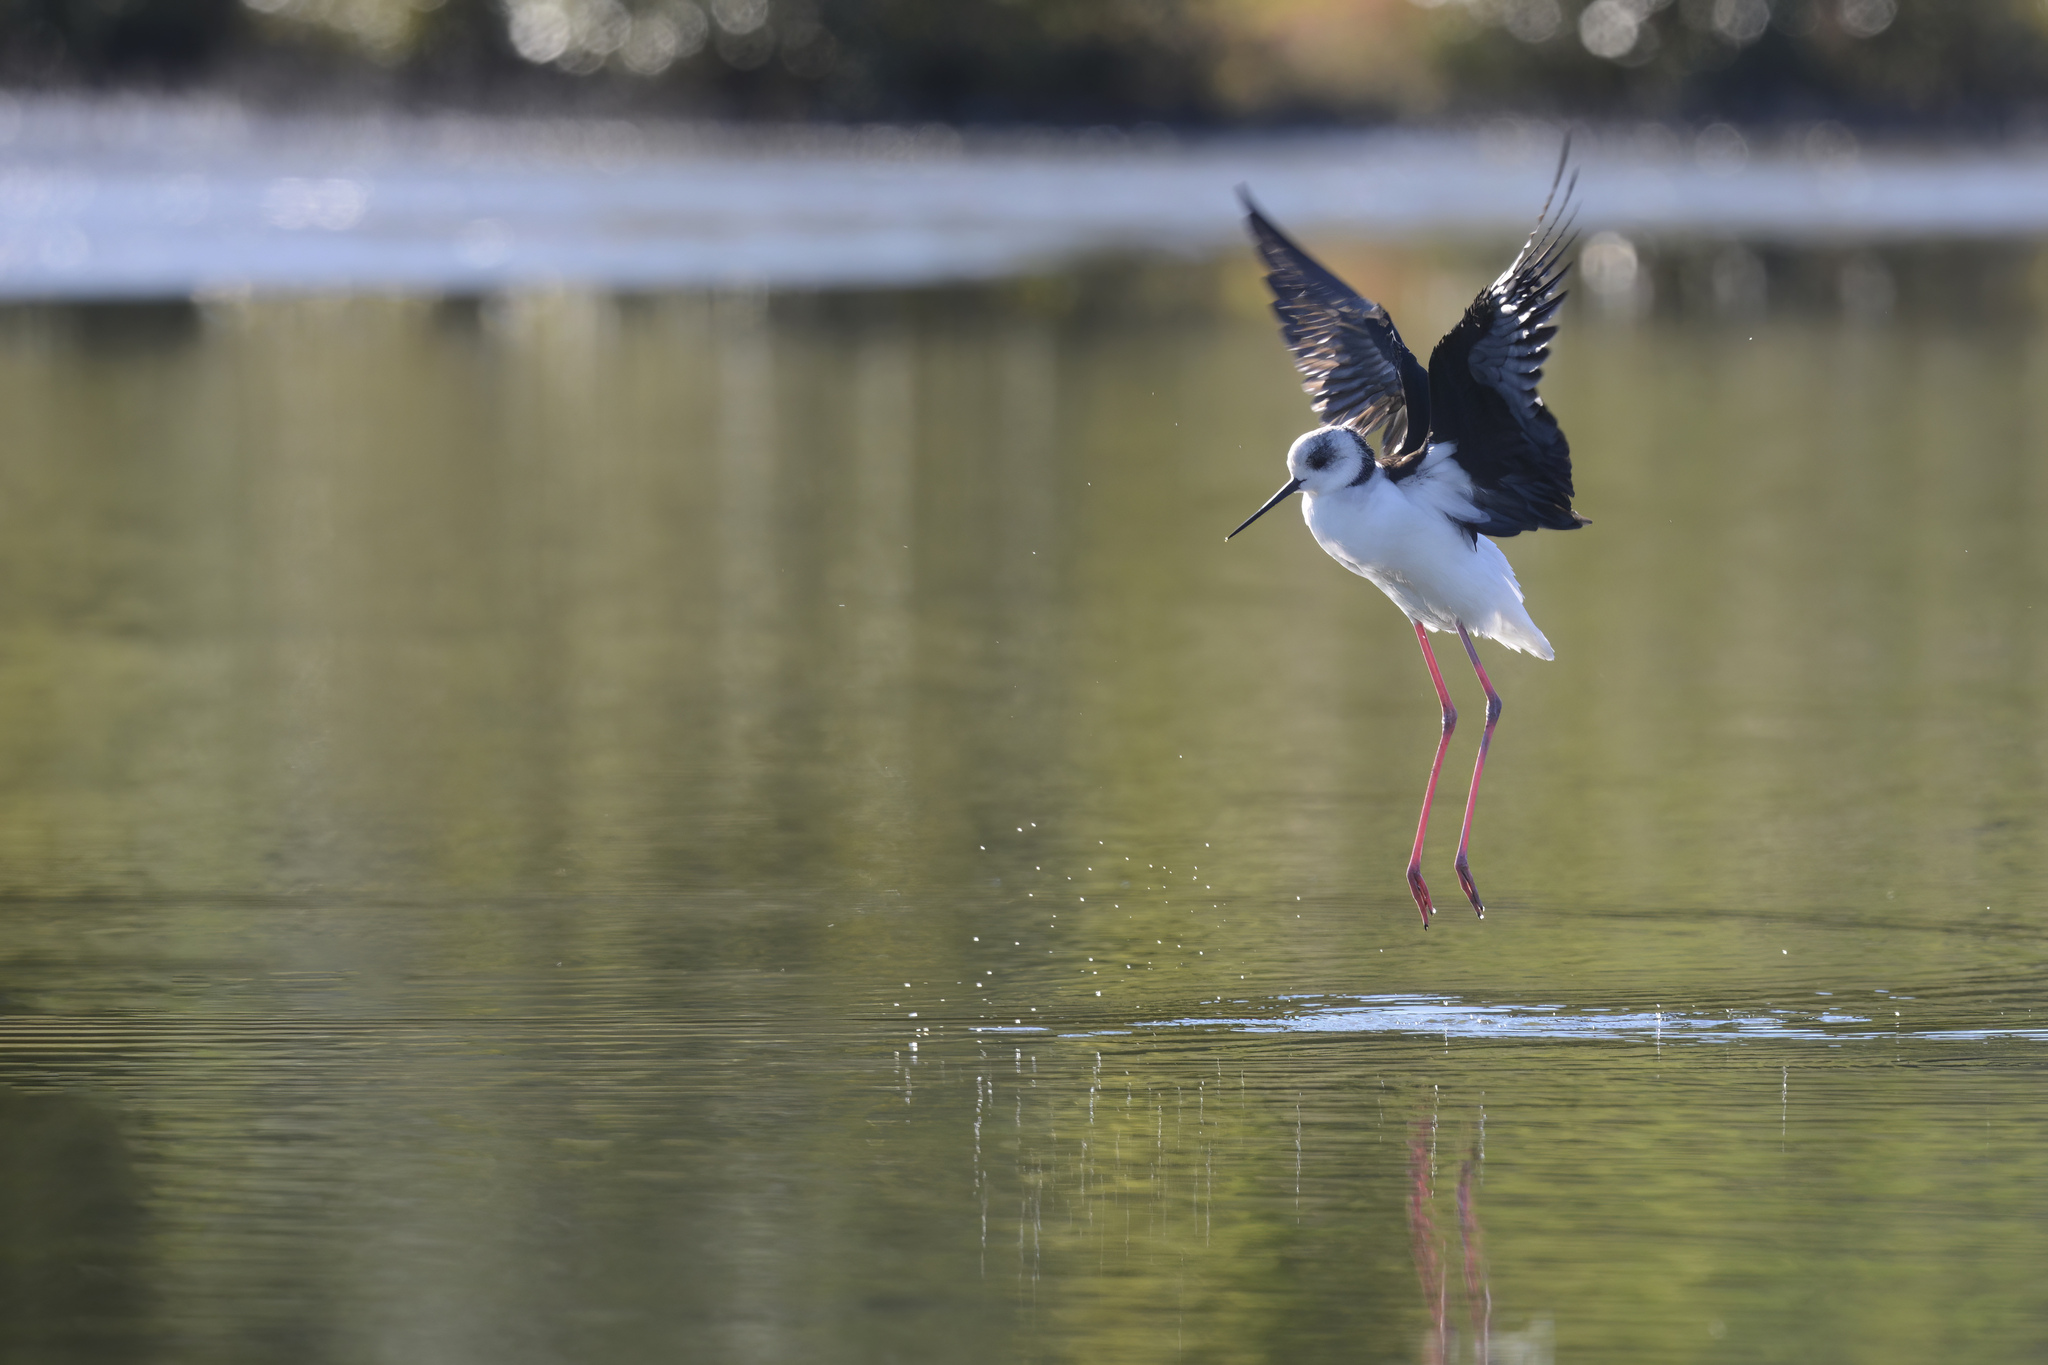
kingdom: Animalia
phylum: Chordata
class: Aves
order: Charadriiformes
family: Recurvirostridae
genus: Himantopus
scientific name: Himantopus leucocephalus
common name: White-headed stilt
